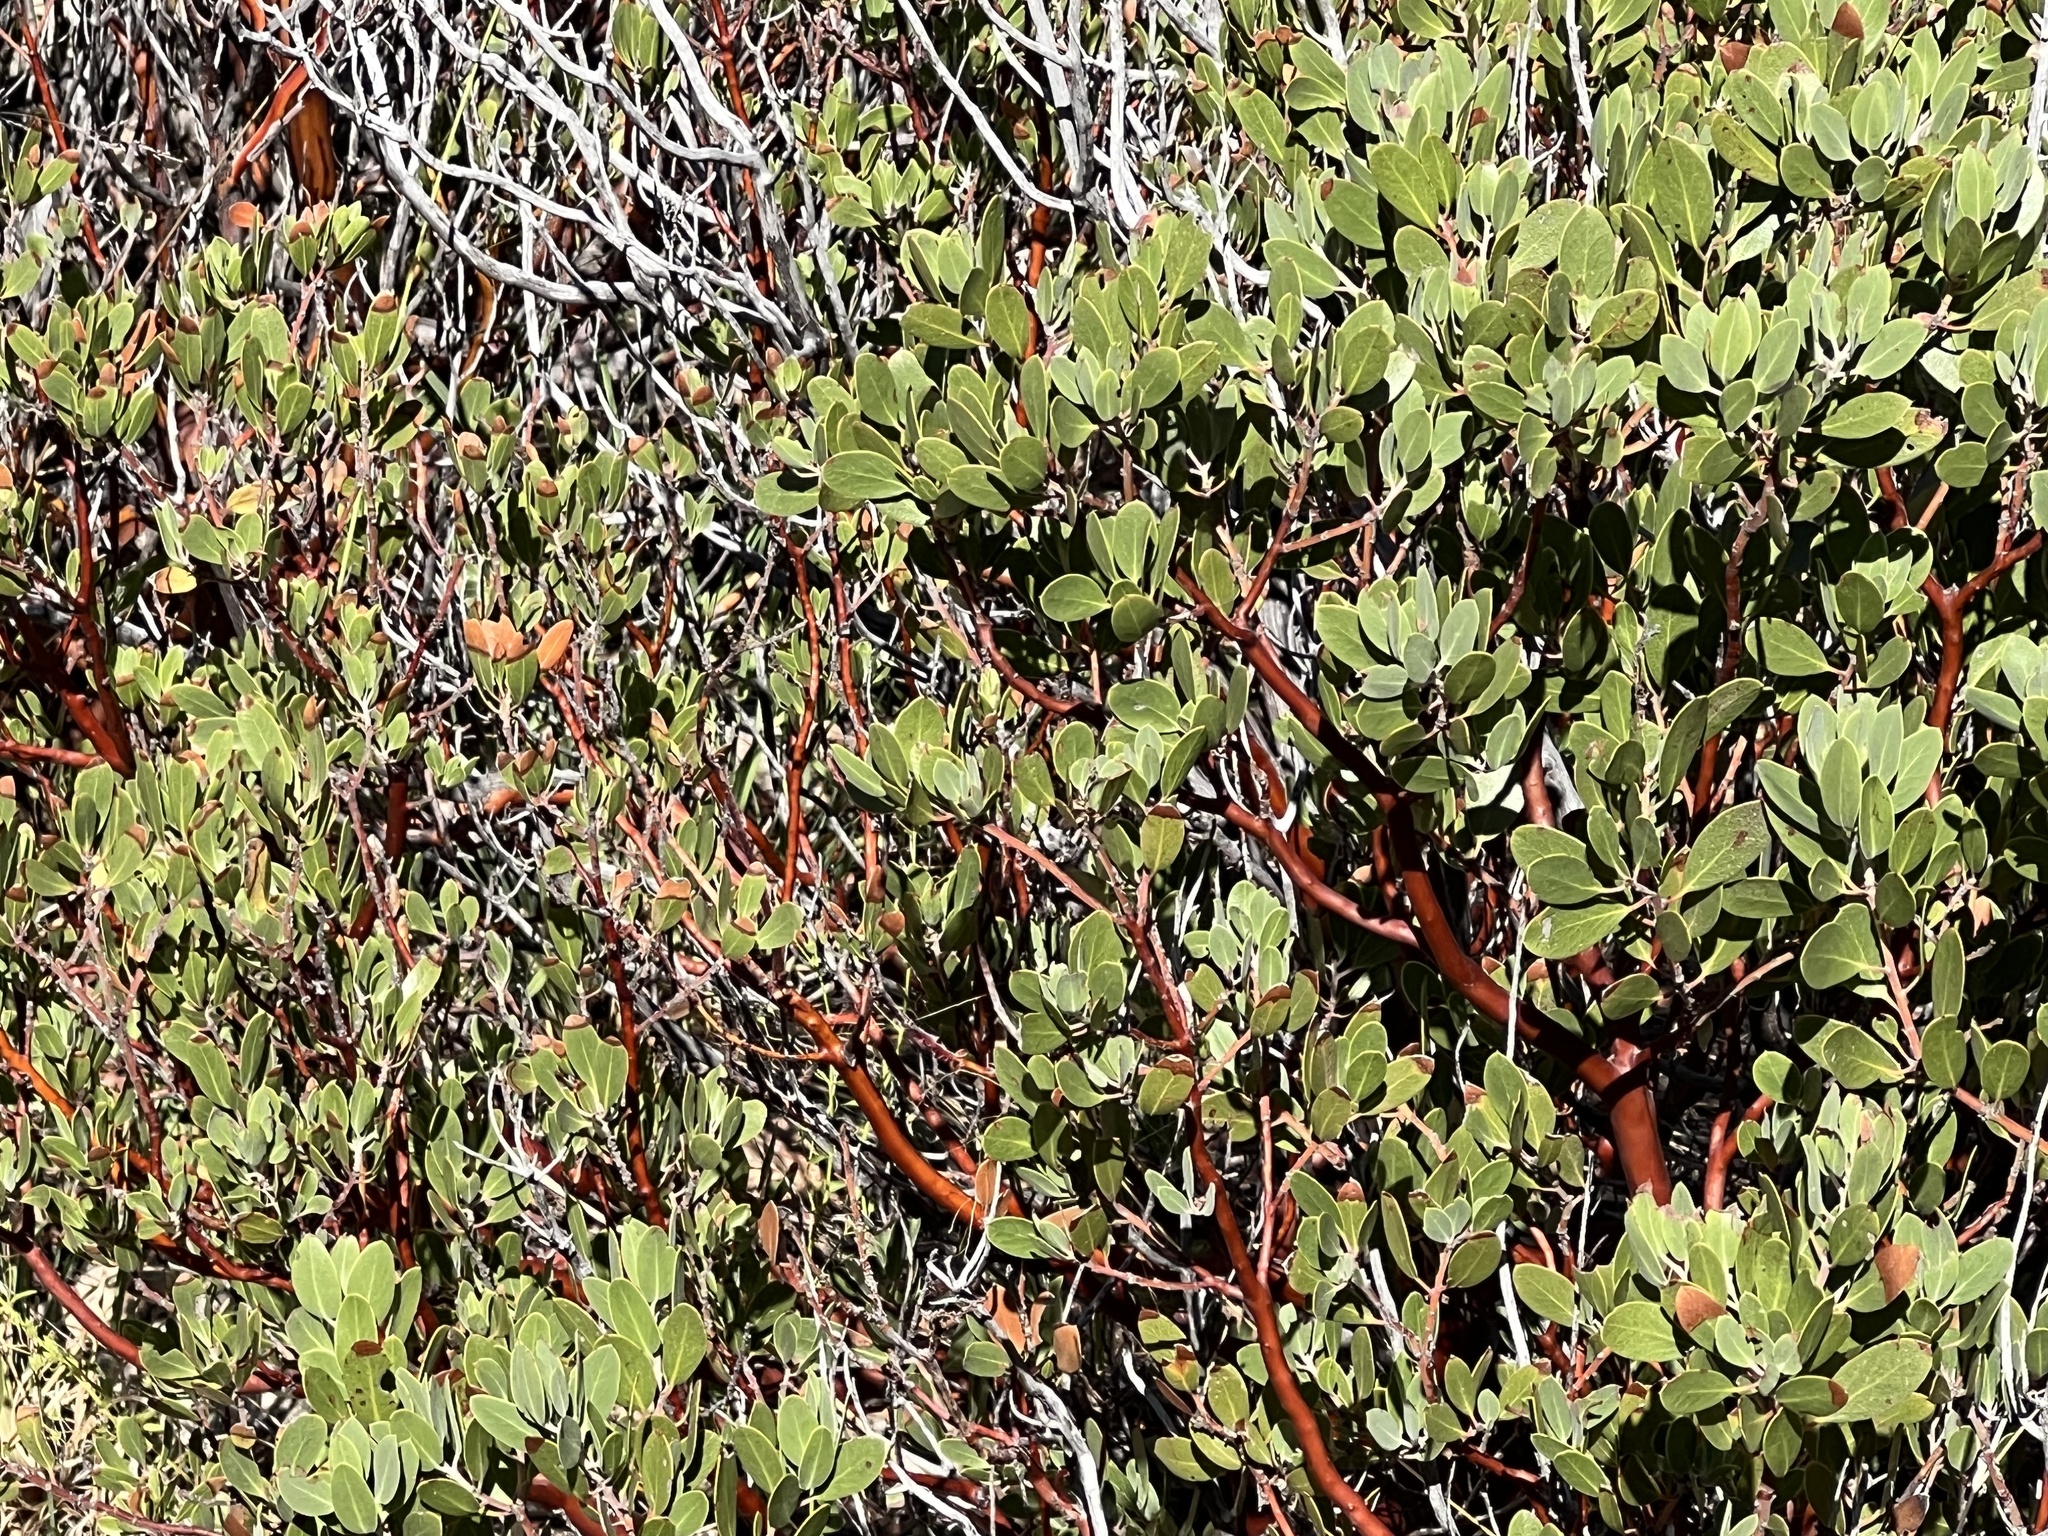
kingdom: Plantae
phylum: Tracheophyta
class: Magnoliopsida
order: Ericales
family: Ericaceae
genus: Arctostaphylos
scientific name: Arctostaphylos pungens
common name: Mexican manzanita
